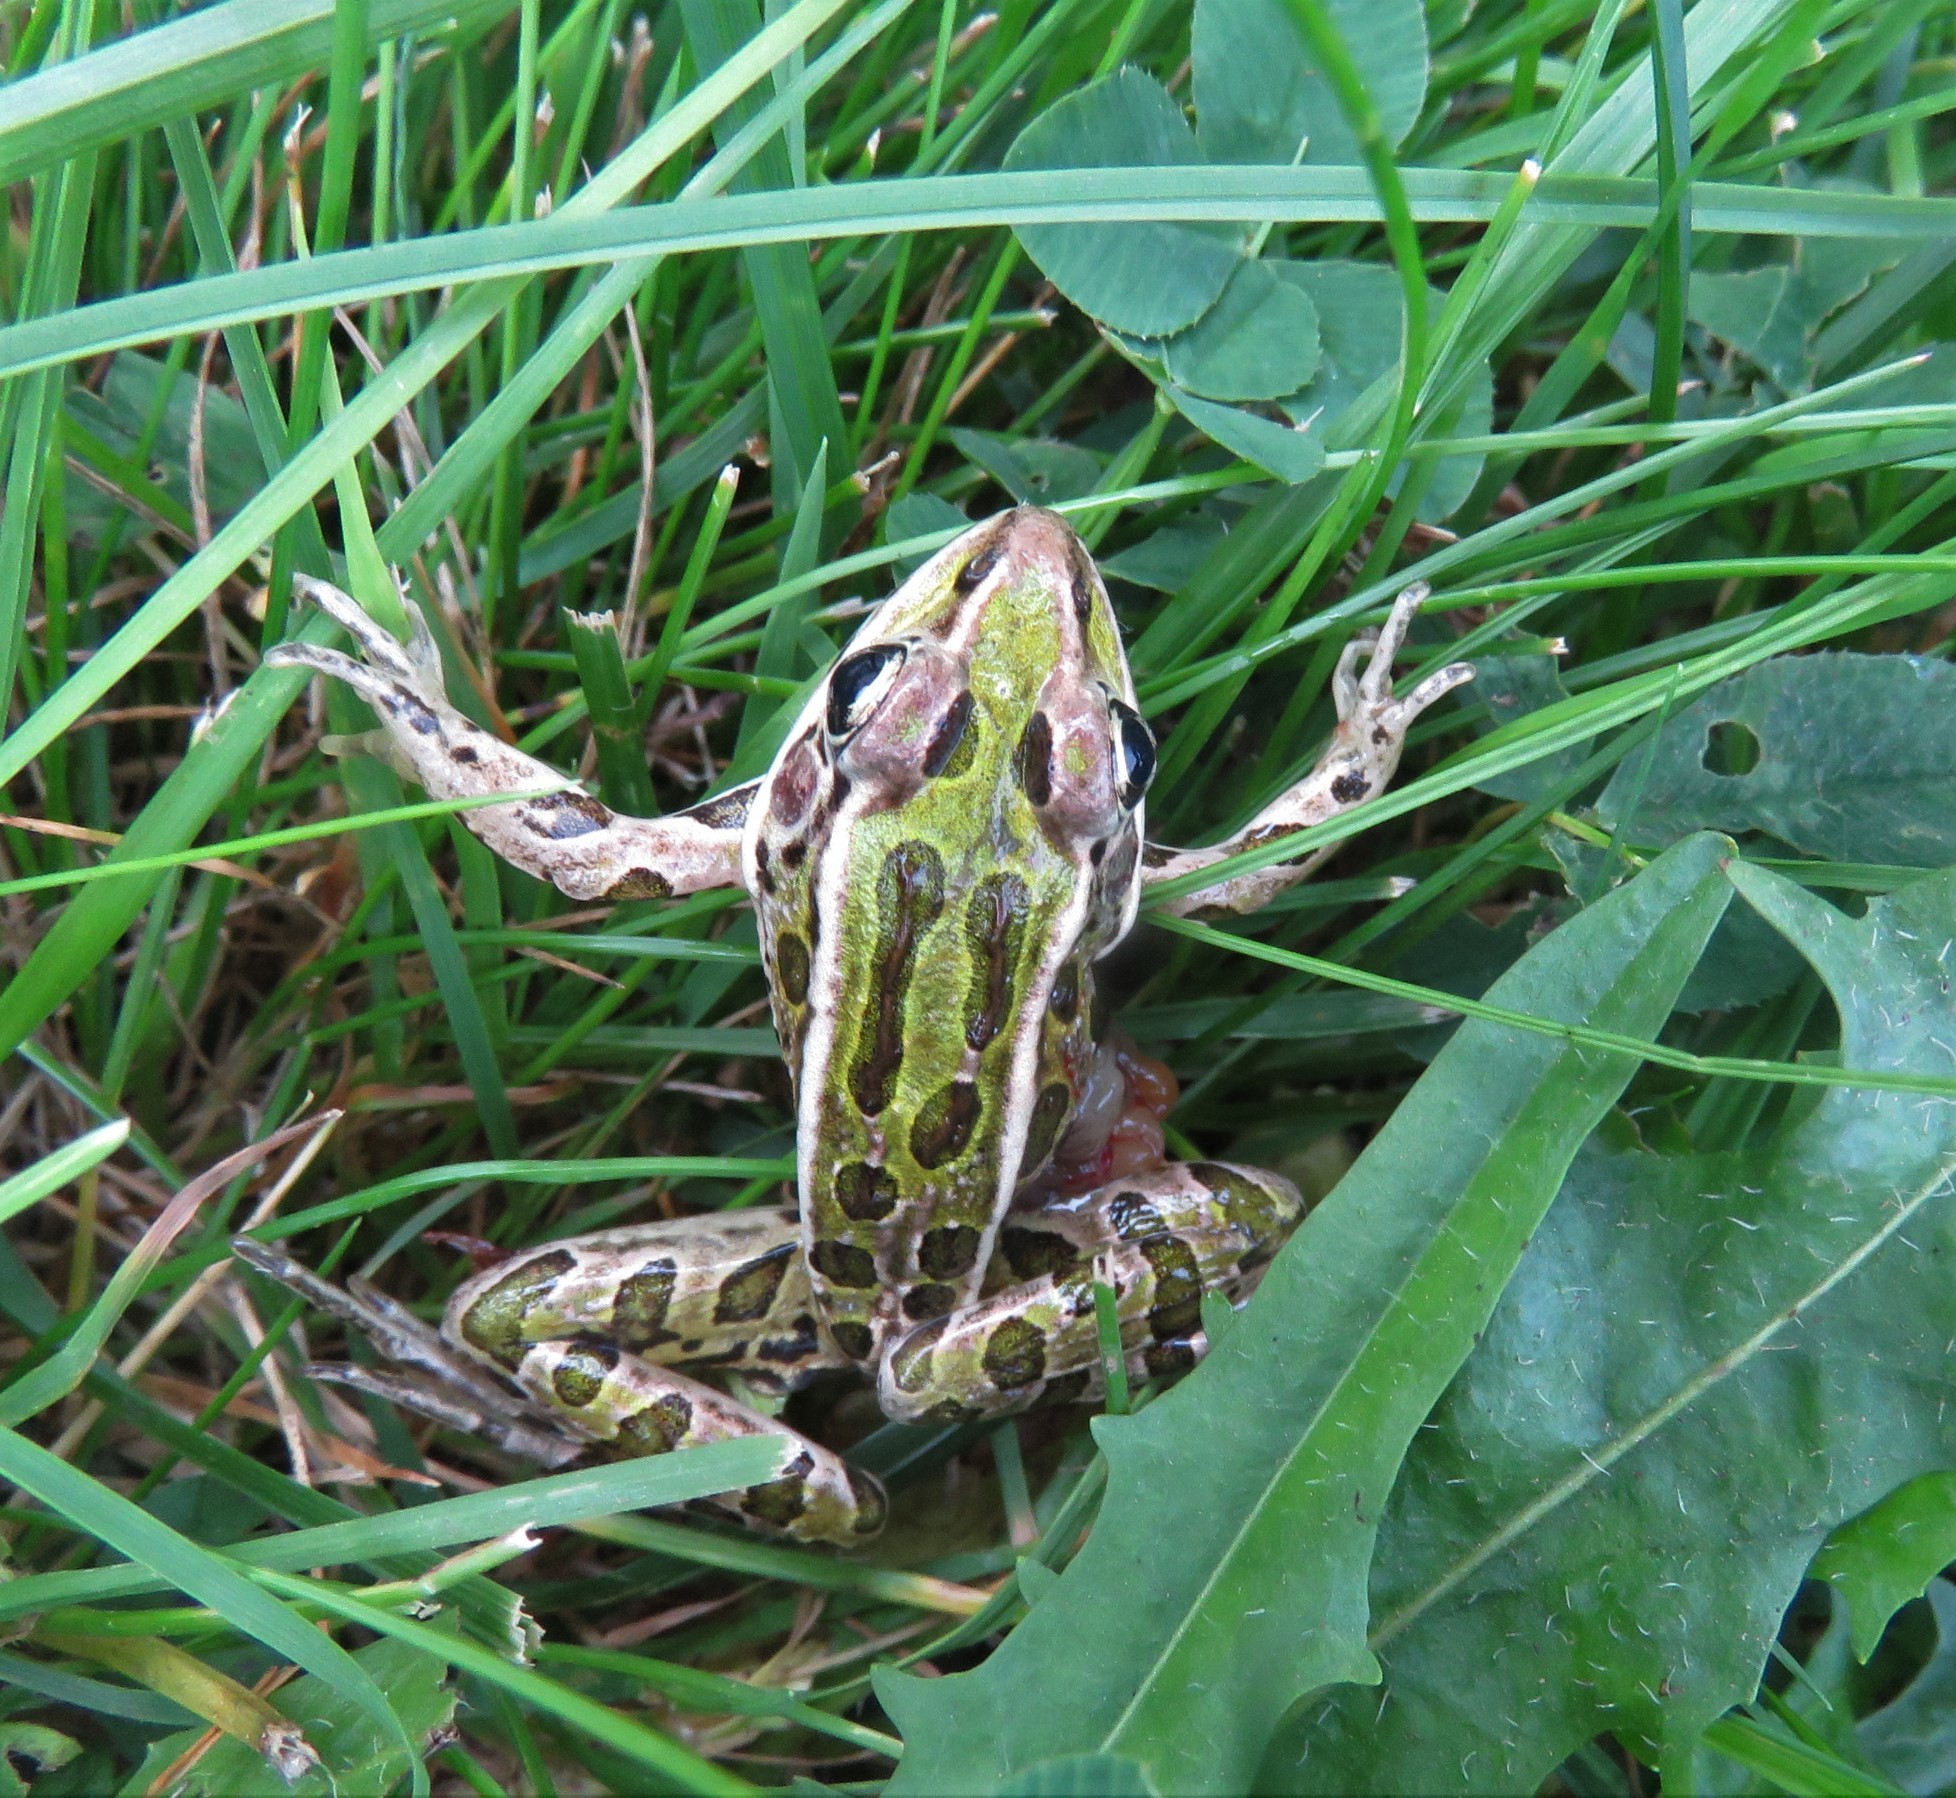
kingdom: Animalia
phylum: Chordata
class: Amphibia
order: Anura
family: Ranidae
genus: Lithobates
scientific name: Lithobates pipiens
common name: Northern leopard frog
